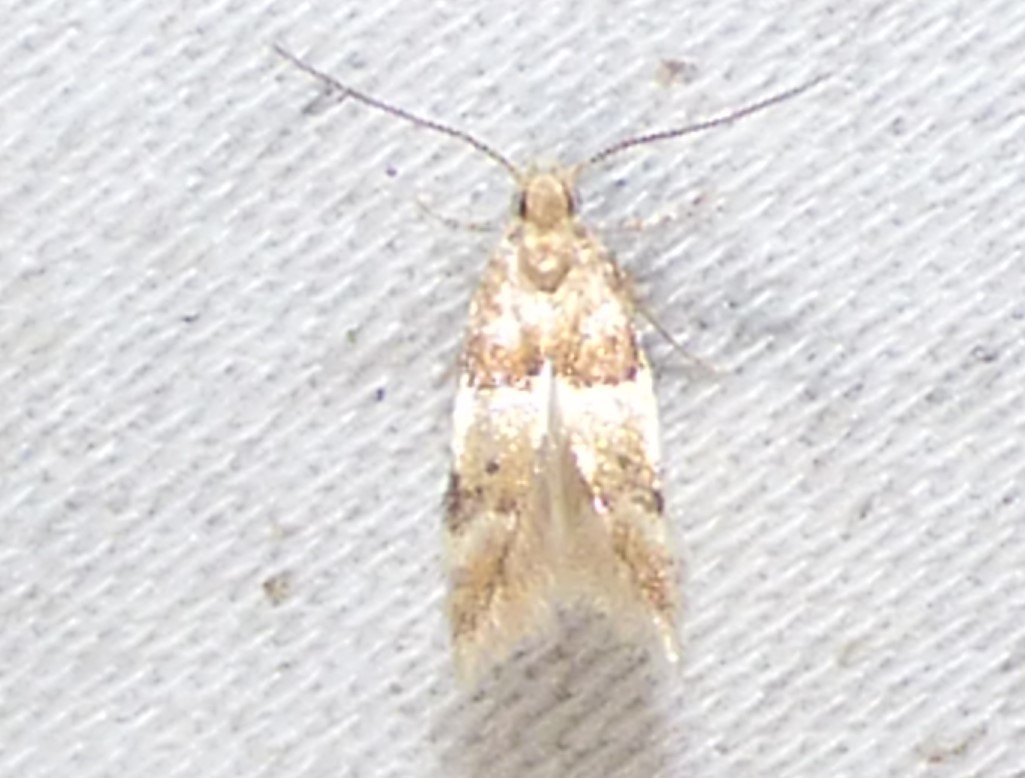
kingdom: Animalia
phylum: Arthropoda
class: Insecta
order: Lepidoptera
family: Gelechiidae
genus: Theisoa
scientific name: Theisoa constrictella
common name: Constricted twirler
